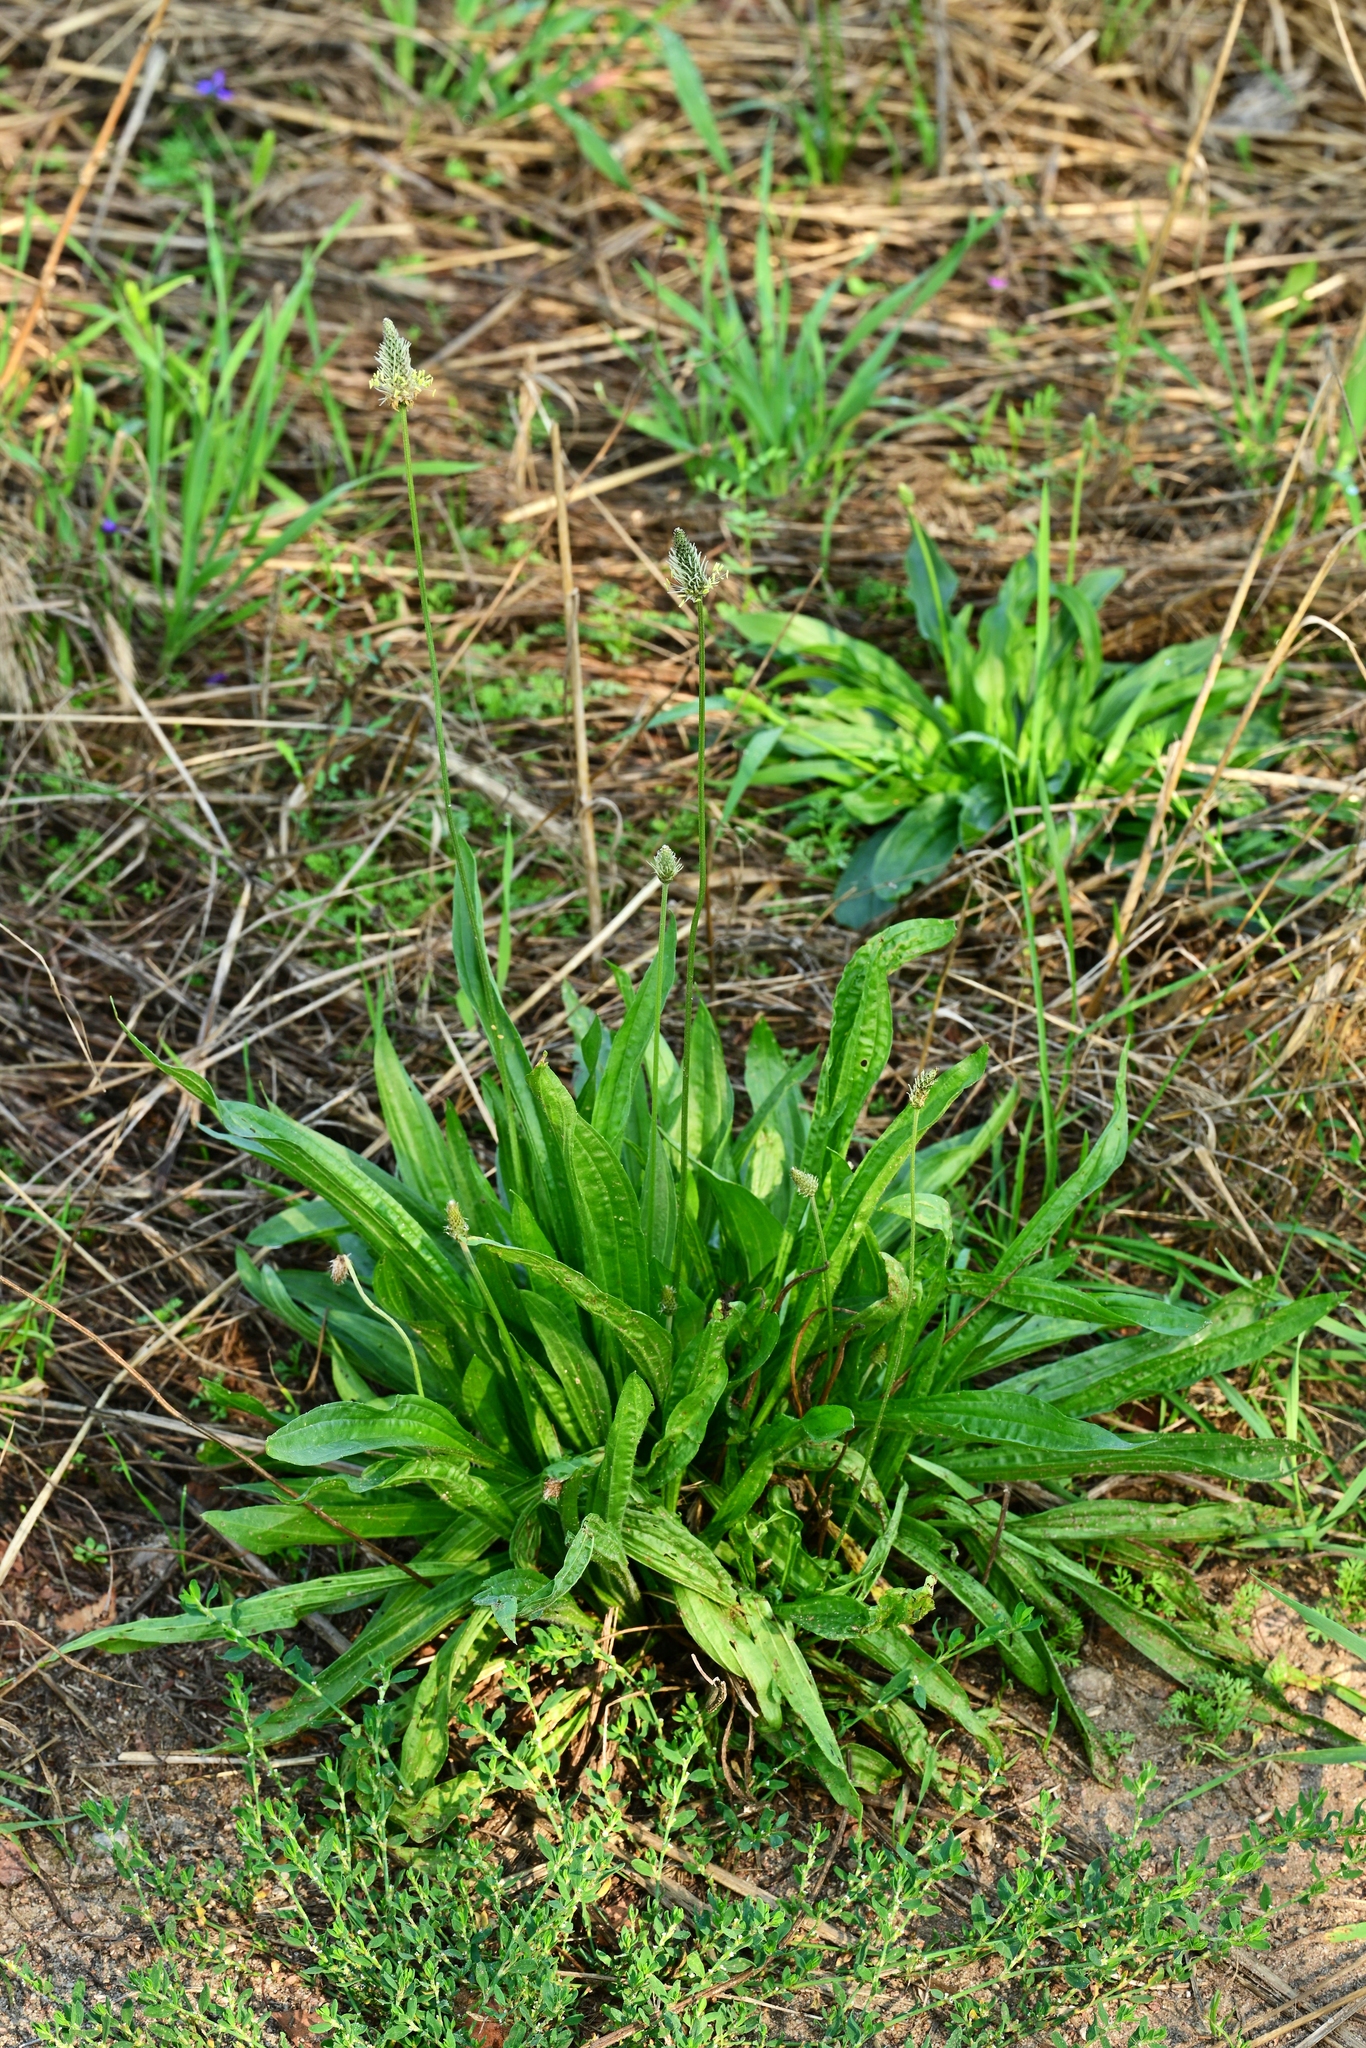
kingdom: Plantae
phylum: Tracheophyta
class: Magnoliopsida
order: Lamiales
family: Plantaginaceae
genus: Plantago
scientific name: Plantago lanceolata
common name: Ribwort plantain
